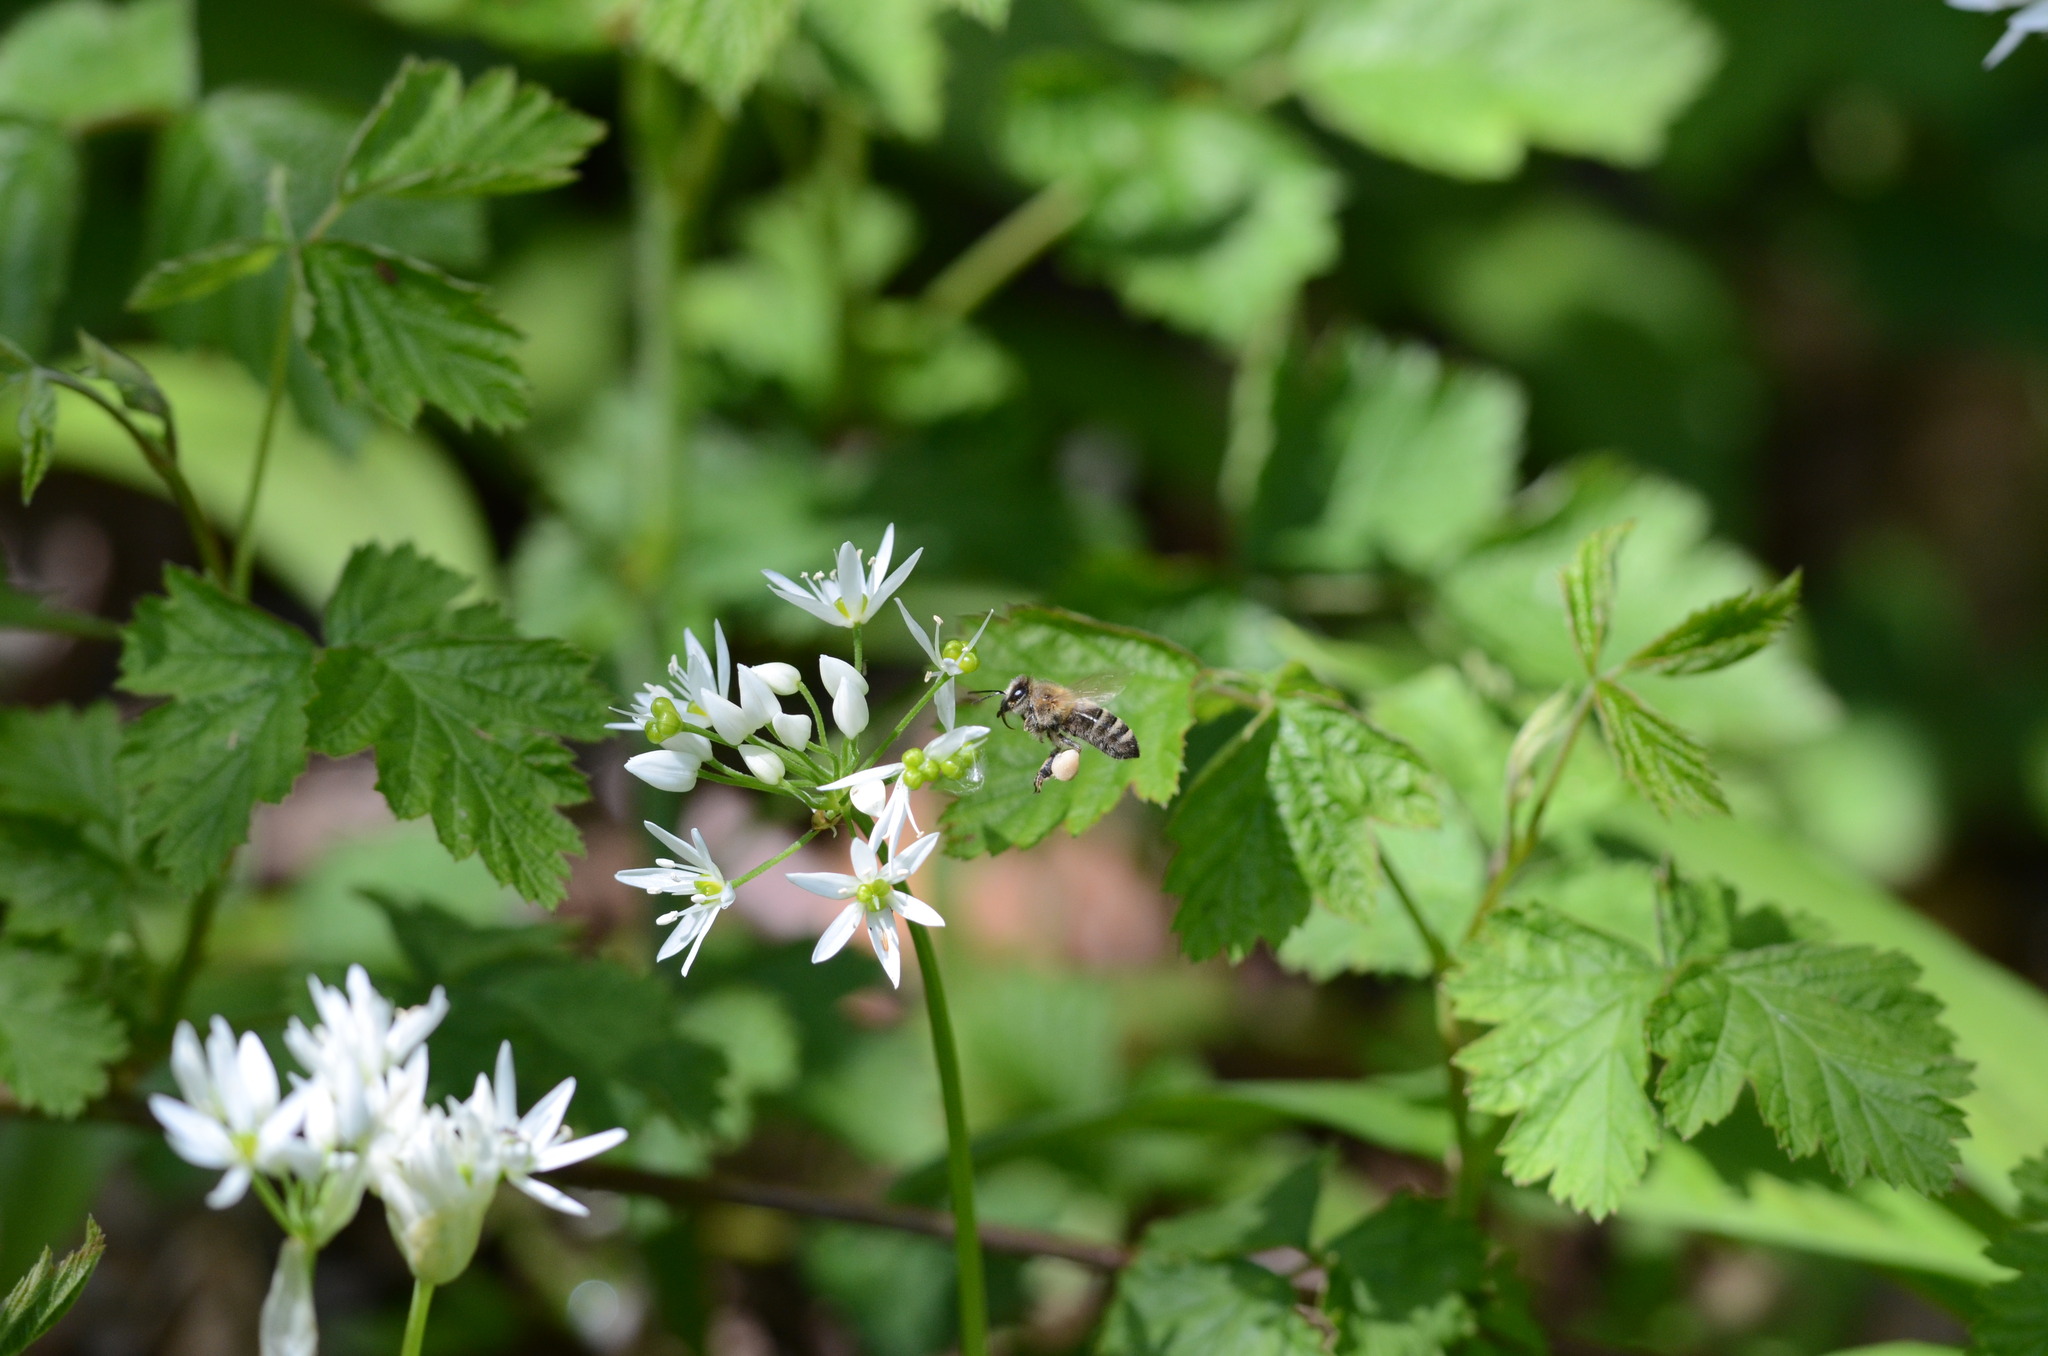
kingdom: Plantae
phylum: Tracheophyta
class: Liliopsida
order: Asparagales
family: Amaryllidaceae
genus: Allium
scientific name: Allium ursinum
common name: Ramsons
